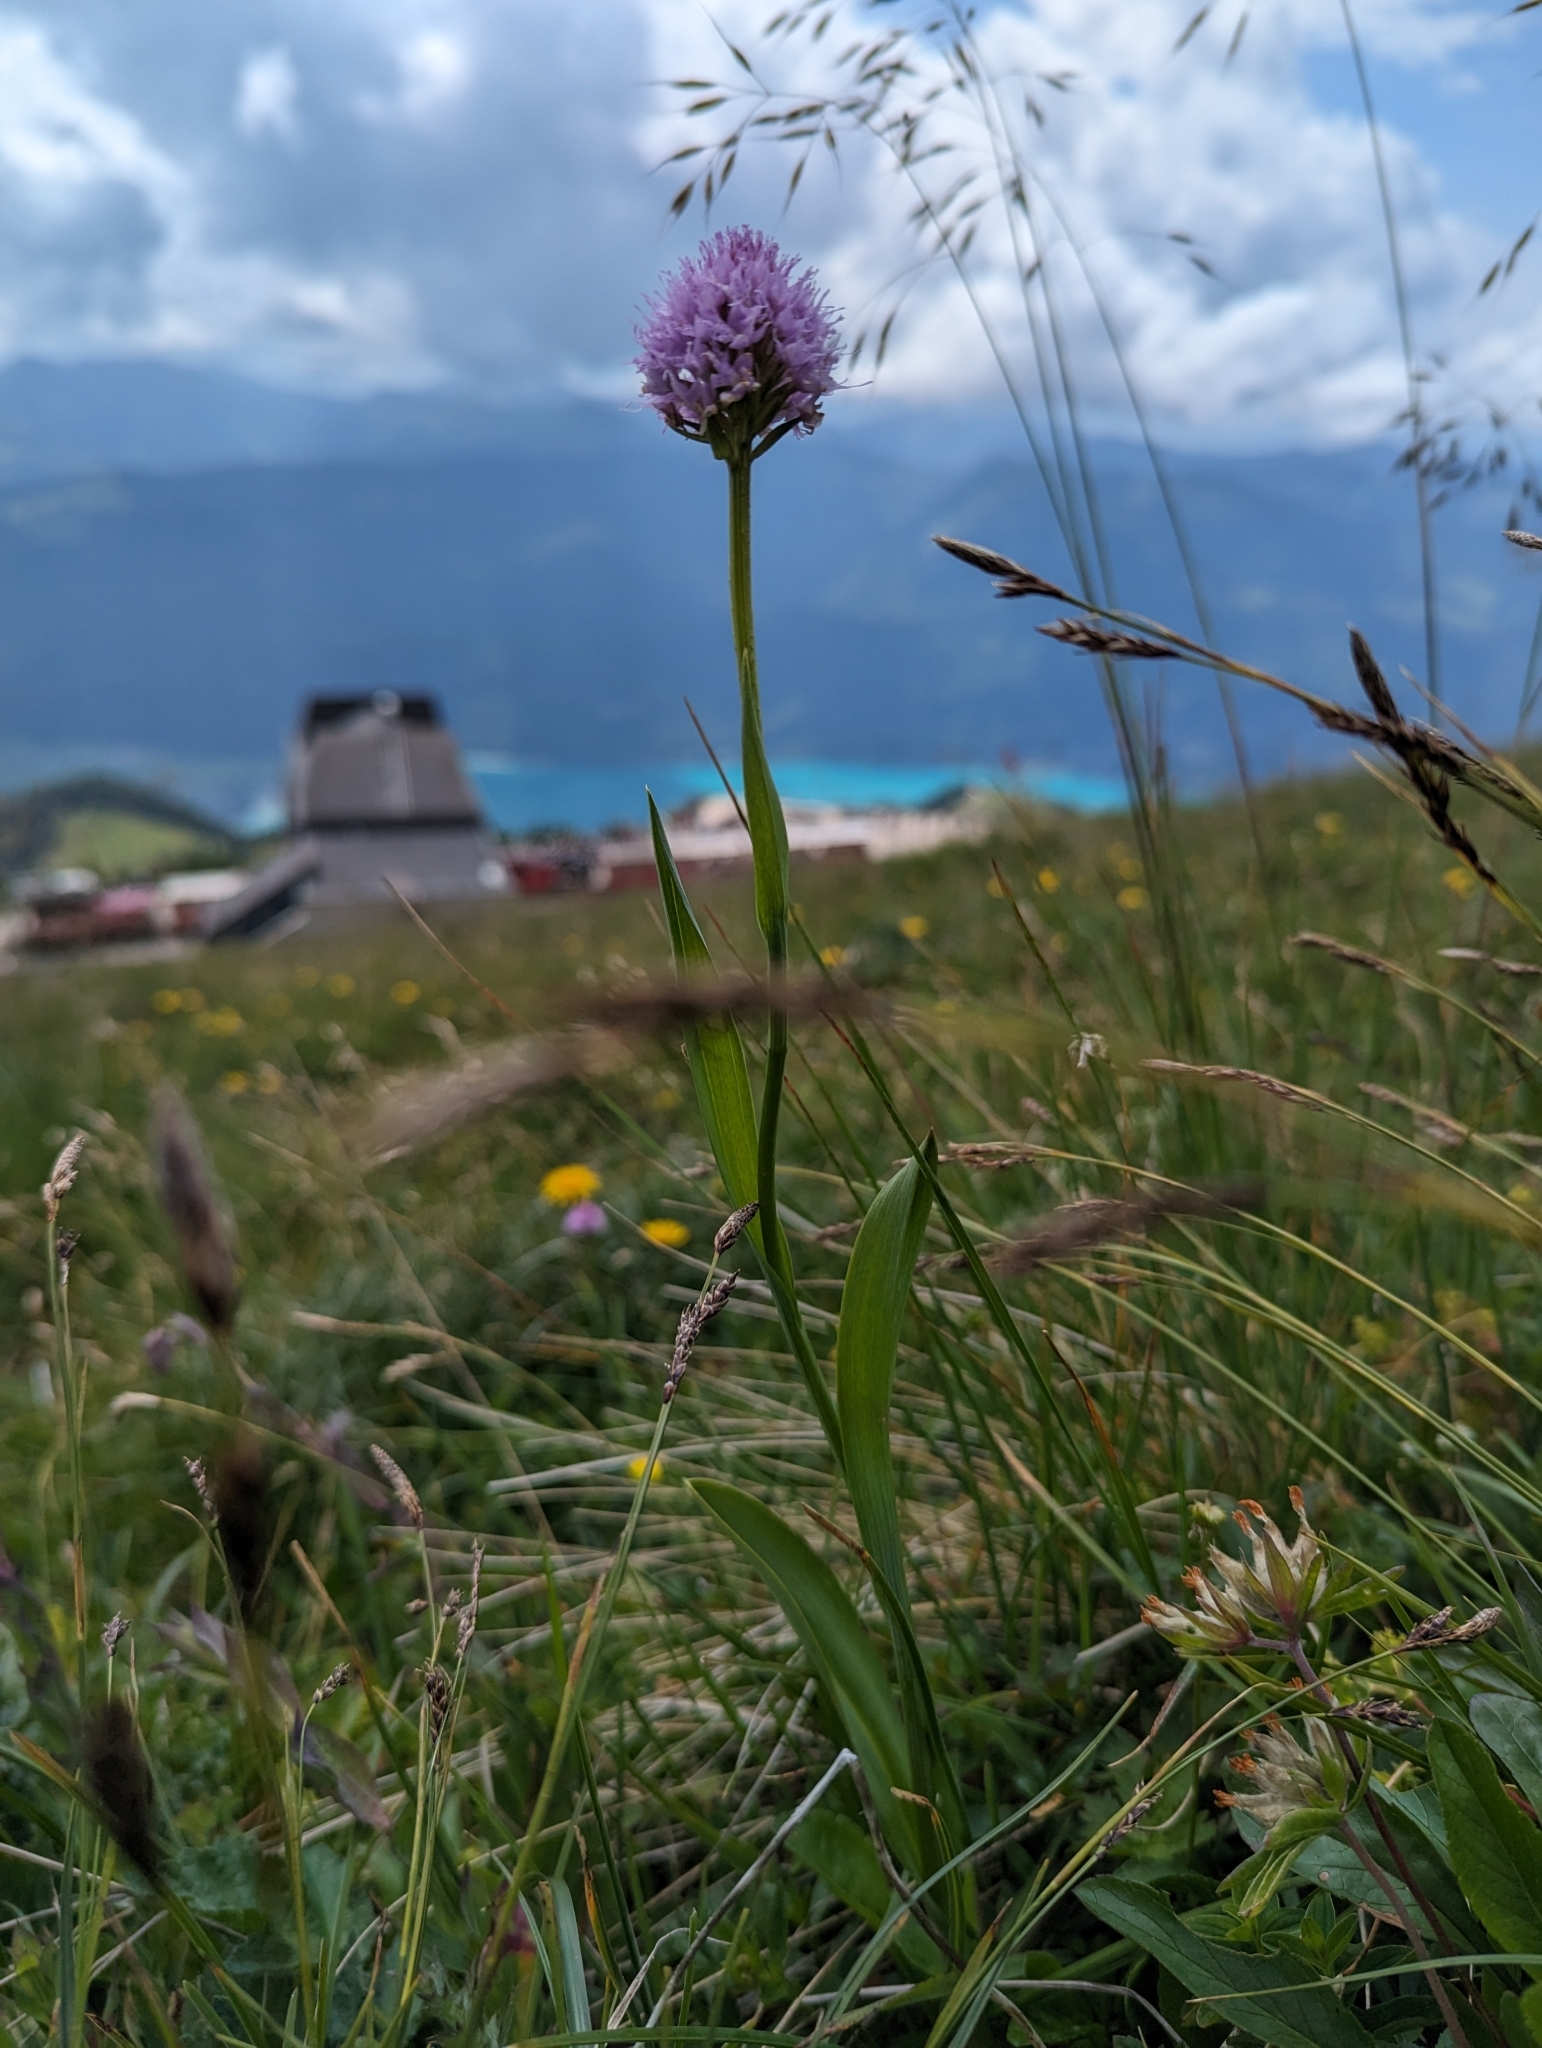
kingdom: Plantae
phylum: Tracheophyta
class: Liliopsida
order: Asparagales
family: Orchidaceae
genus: Traunsteinera
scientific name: Traunsteinera globosa
